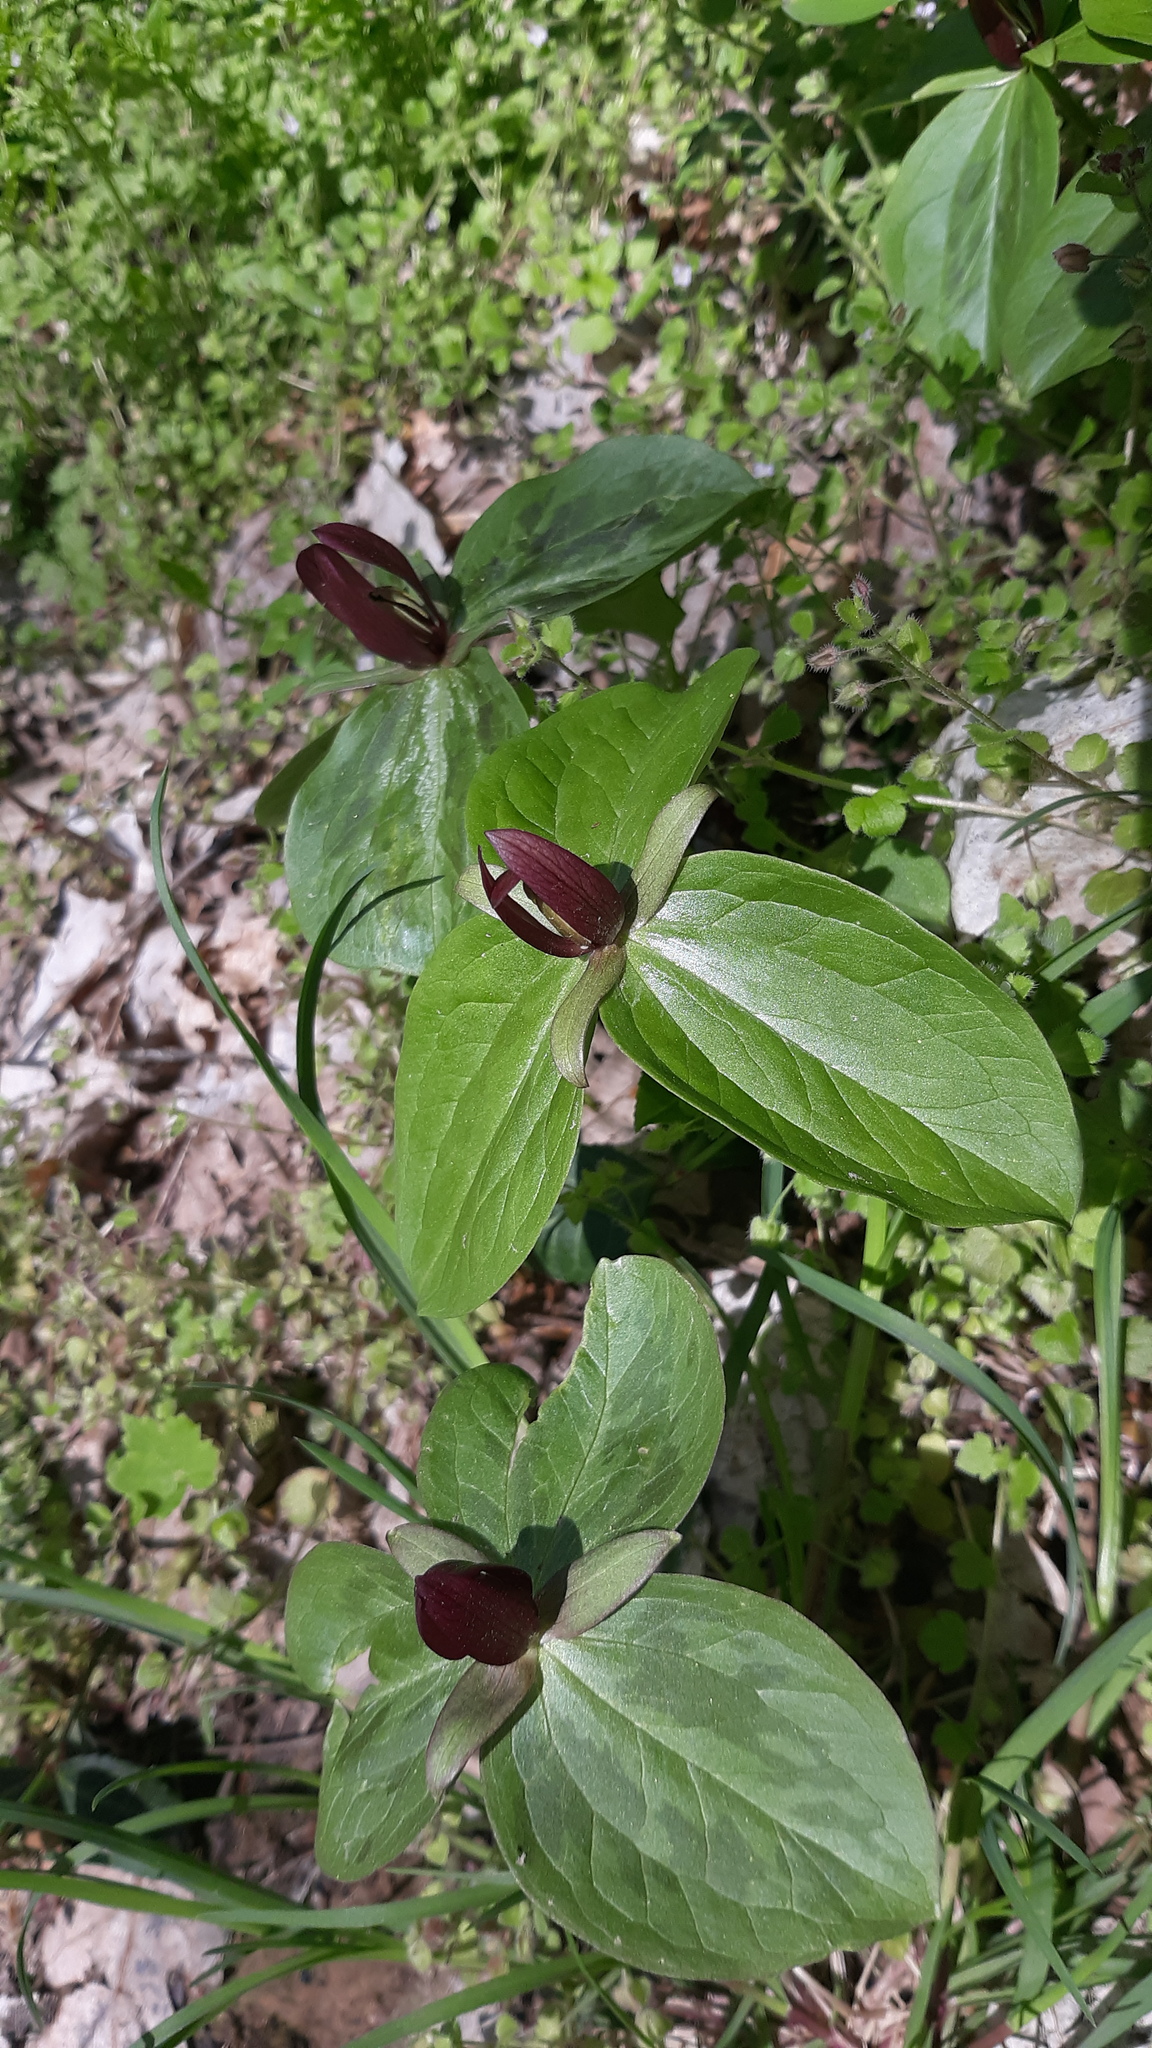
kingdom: Plantae
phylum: Tracheophyta
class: Liliopsida
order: Liliales
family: Melanthiaceae
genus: Trillium
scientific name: Trillium sessile
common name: Sessile trillium
